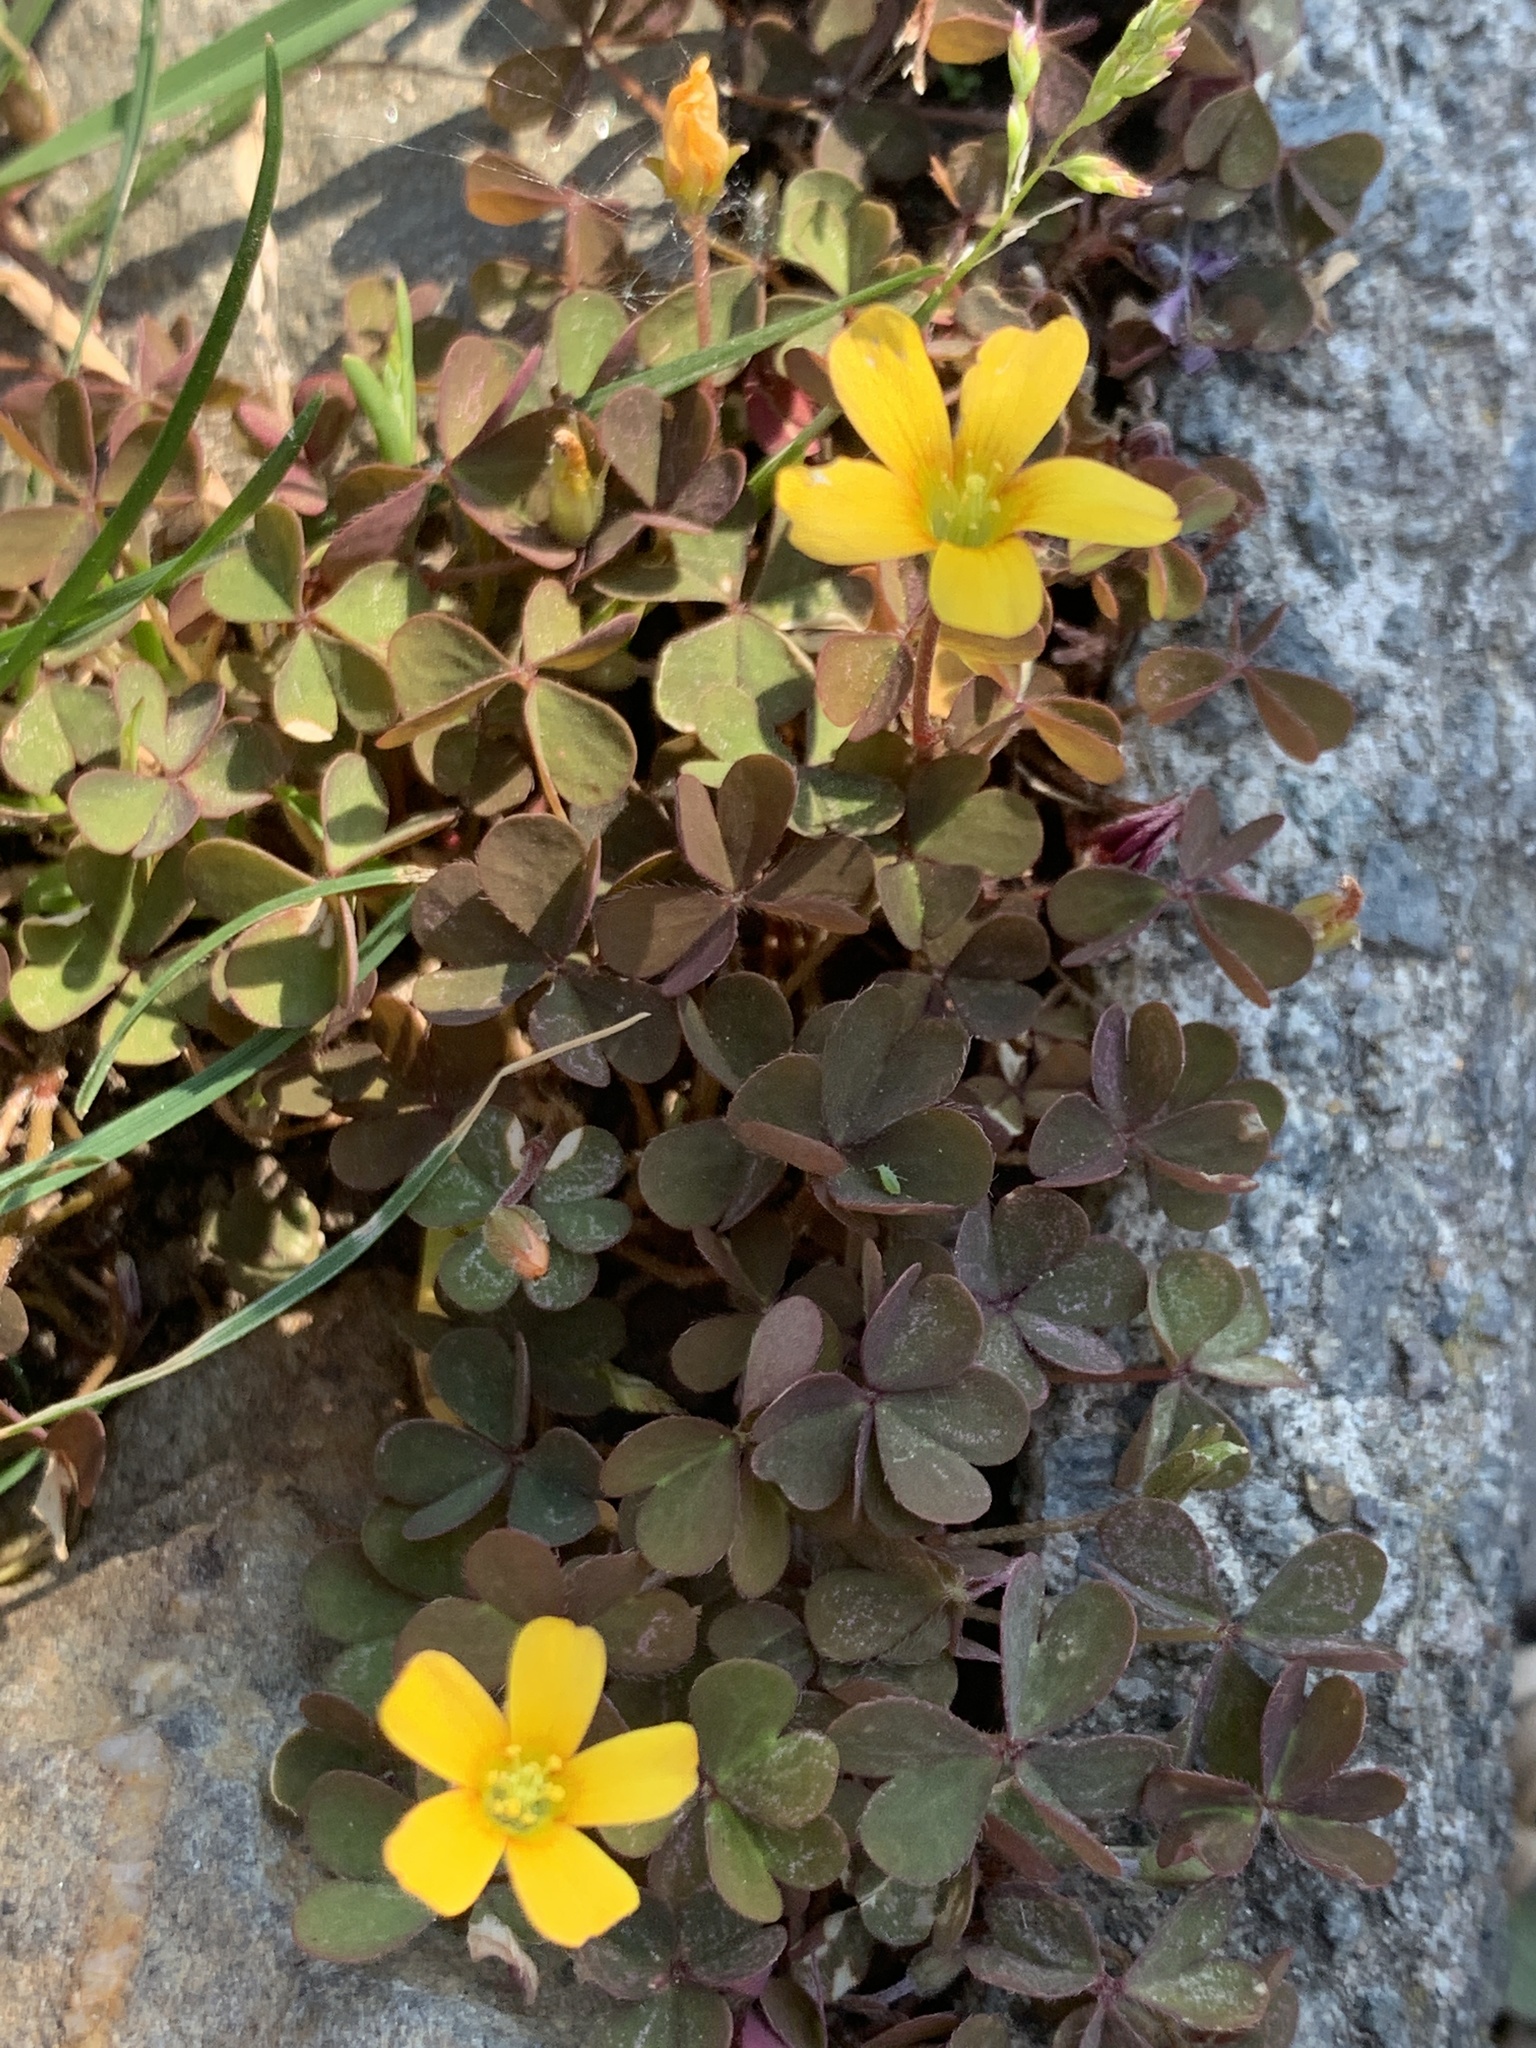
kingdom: Plantae
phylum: Tracheophyta
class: Magnoliopsida
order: Oxalidales
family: Oxalidaceae
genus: Oxalis
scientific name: Oxalis corniculata
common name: Procumbent yellow-sorrel
